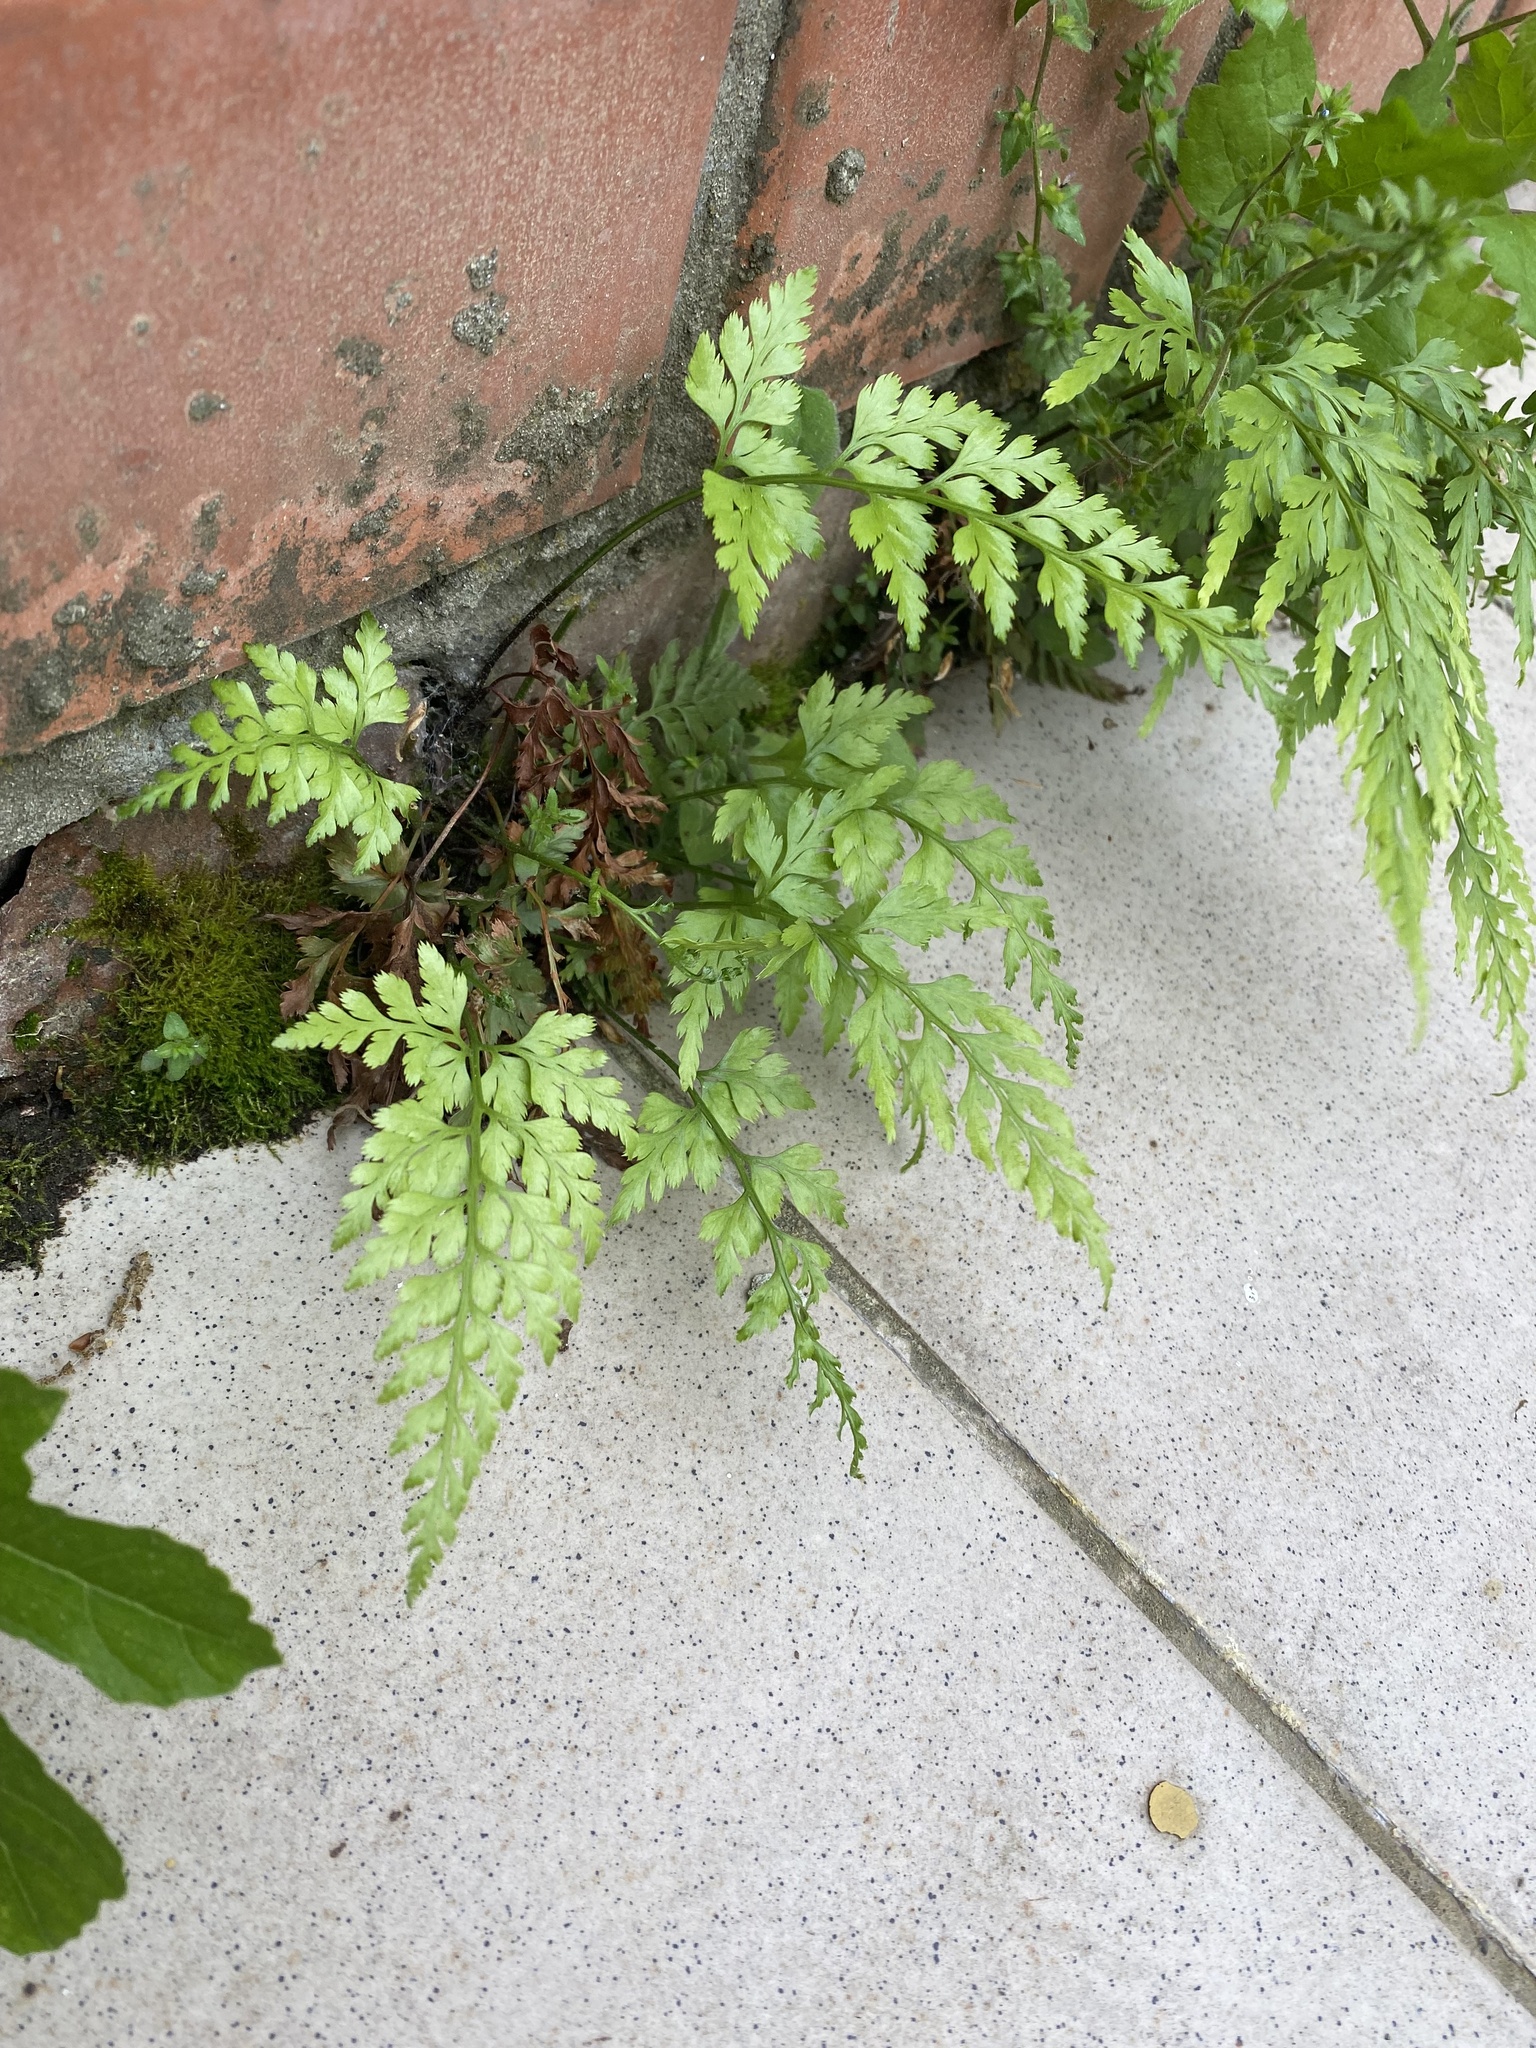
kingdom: Plantae
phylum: Tracheophyta
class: Polypodiopsida
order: Polypodiales
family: Aspleniaceae
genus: Asplenium
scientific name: Asplenium adiantum-nigrum
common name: Black spleenwort
